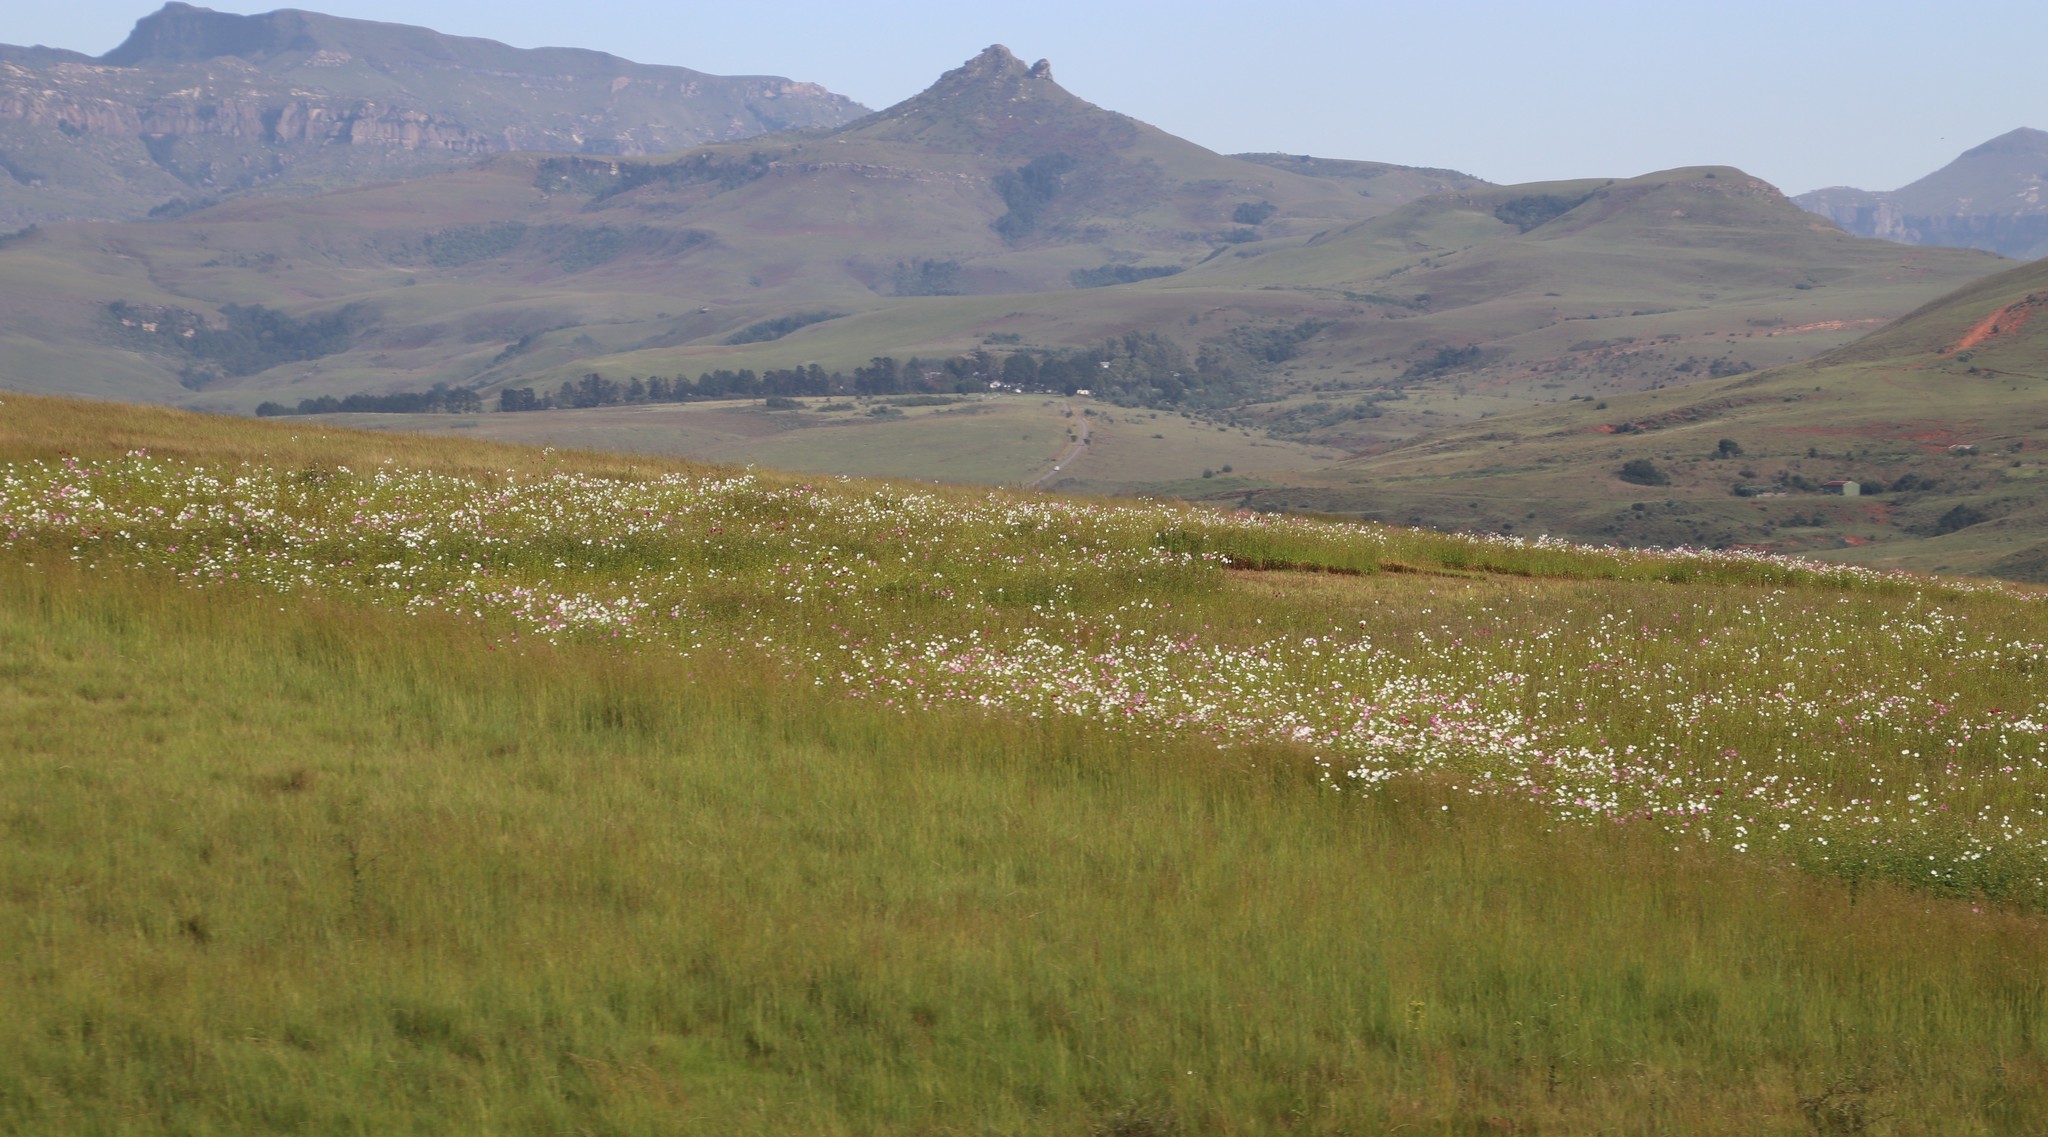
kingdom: Plantae
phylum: Tracheophyta
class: Magnoliopsida
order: Asterales
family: Asteraceae
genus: Cosmos
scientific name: Cosmos bipinnatus
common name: Garden cosmos
